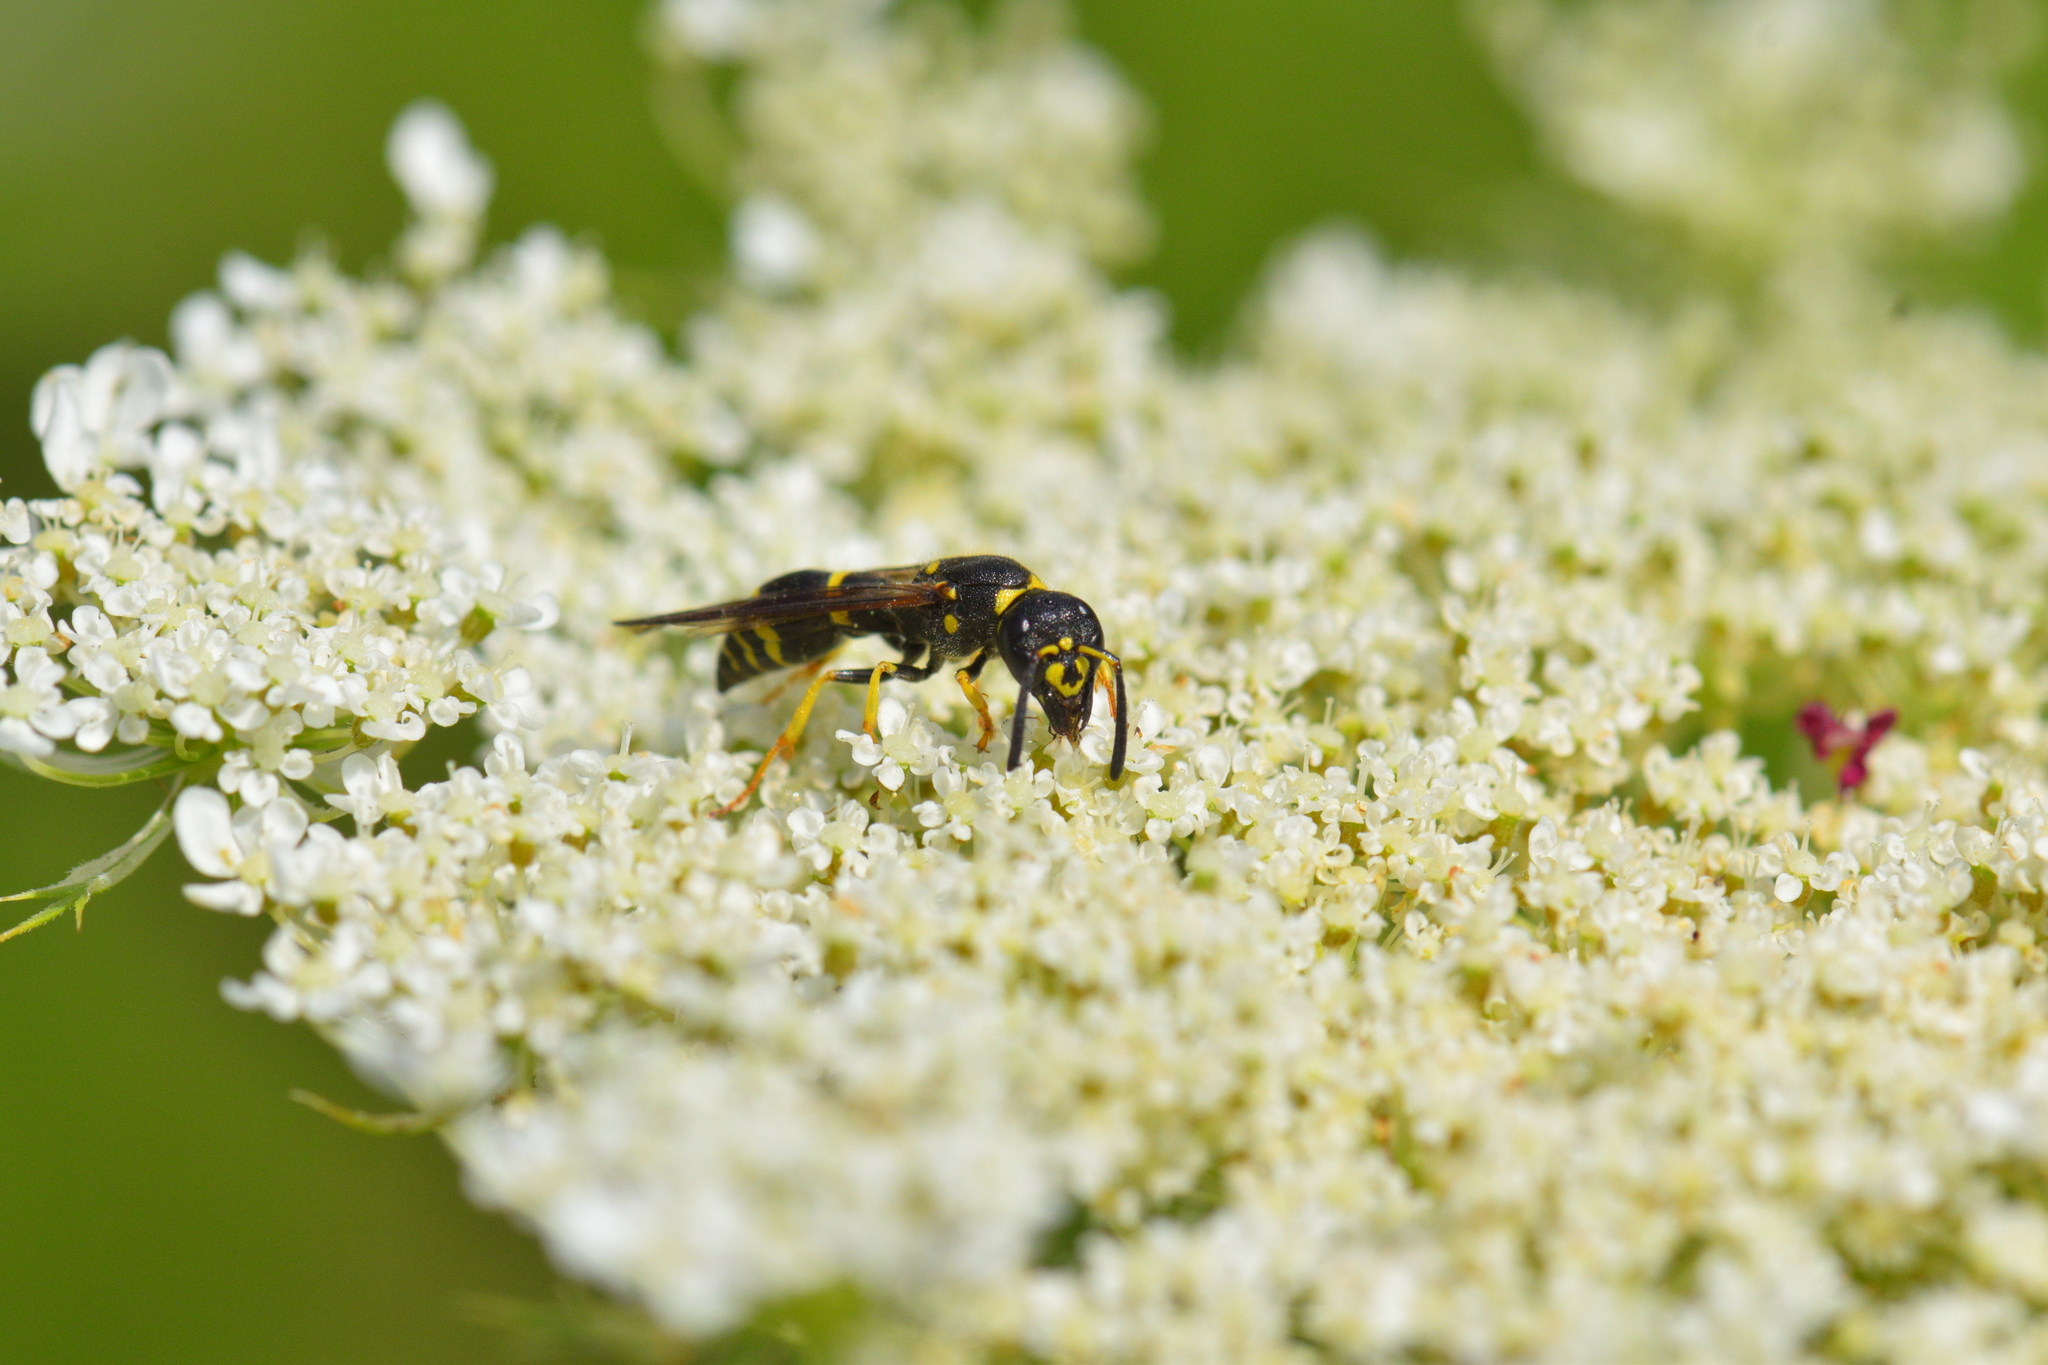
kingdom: Animalia
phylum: Arthropoda
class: Insecta
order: Hymenoptera
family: Vespidae
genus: Ancistrocerus
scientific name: Ancistrocerus adiabatus
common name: Bramble mason wasp
